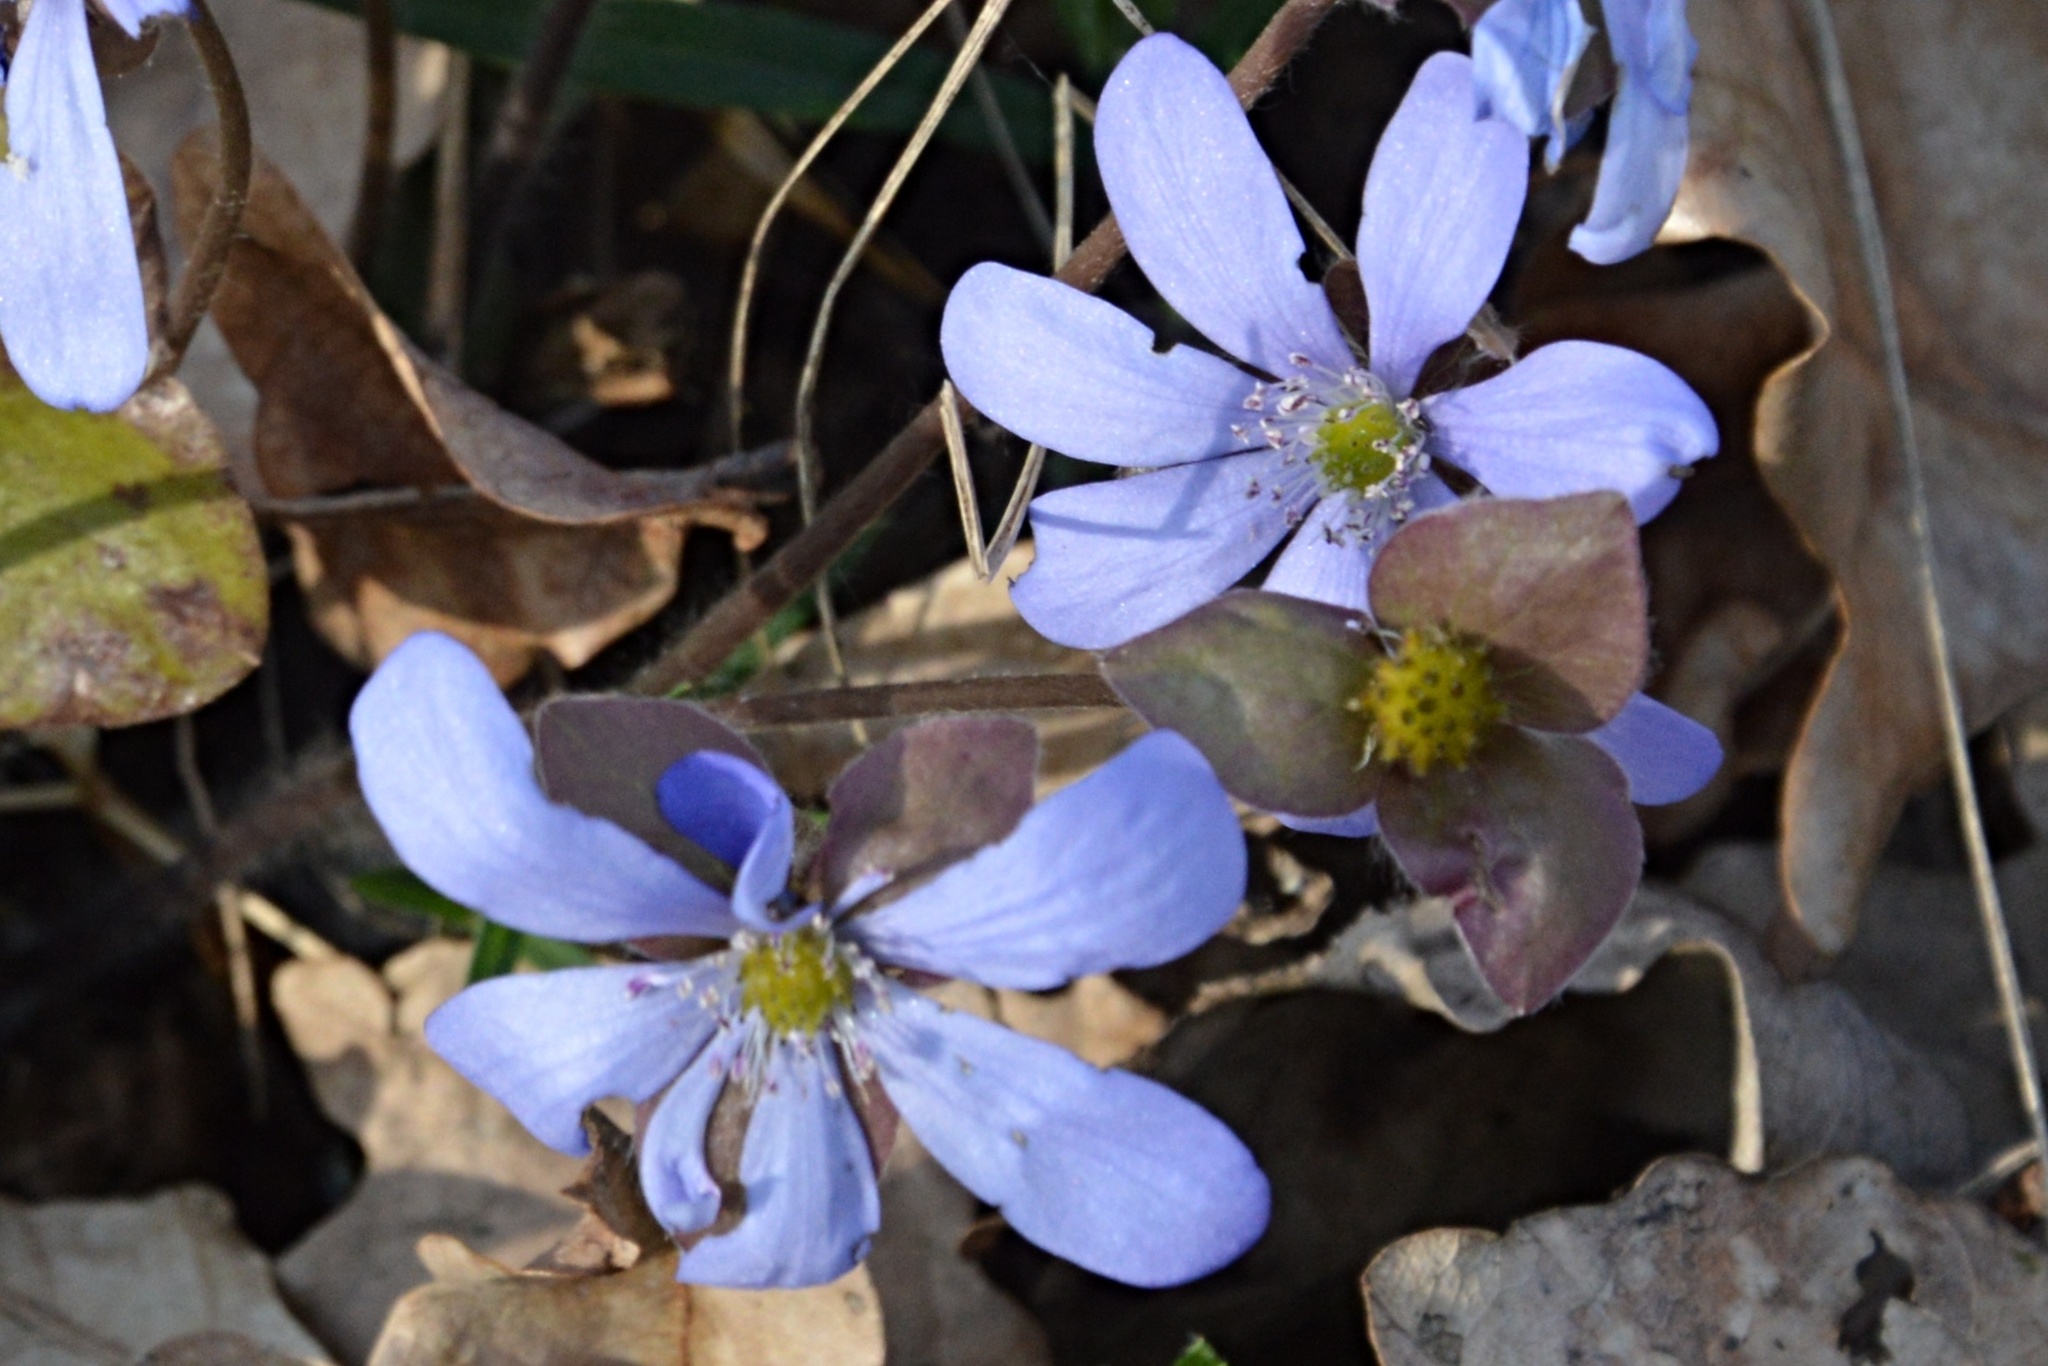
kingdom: Plantae
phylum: Tracheophyta
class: Magnoliopsida
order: Ranunculales
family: Ranunculaceae
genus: Hepatica
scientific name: Hepatica nobilis
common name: Liverleaf
